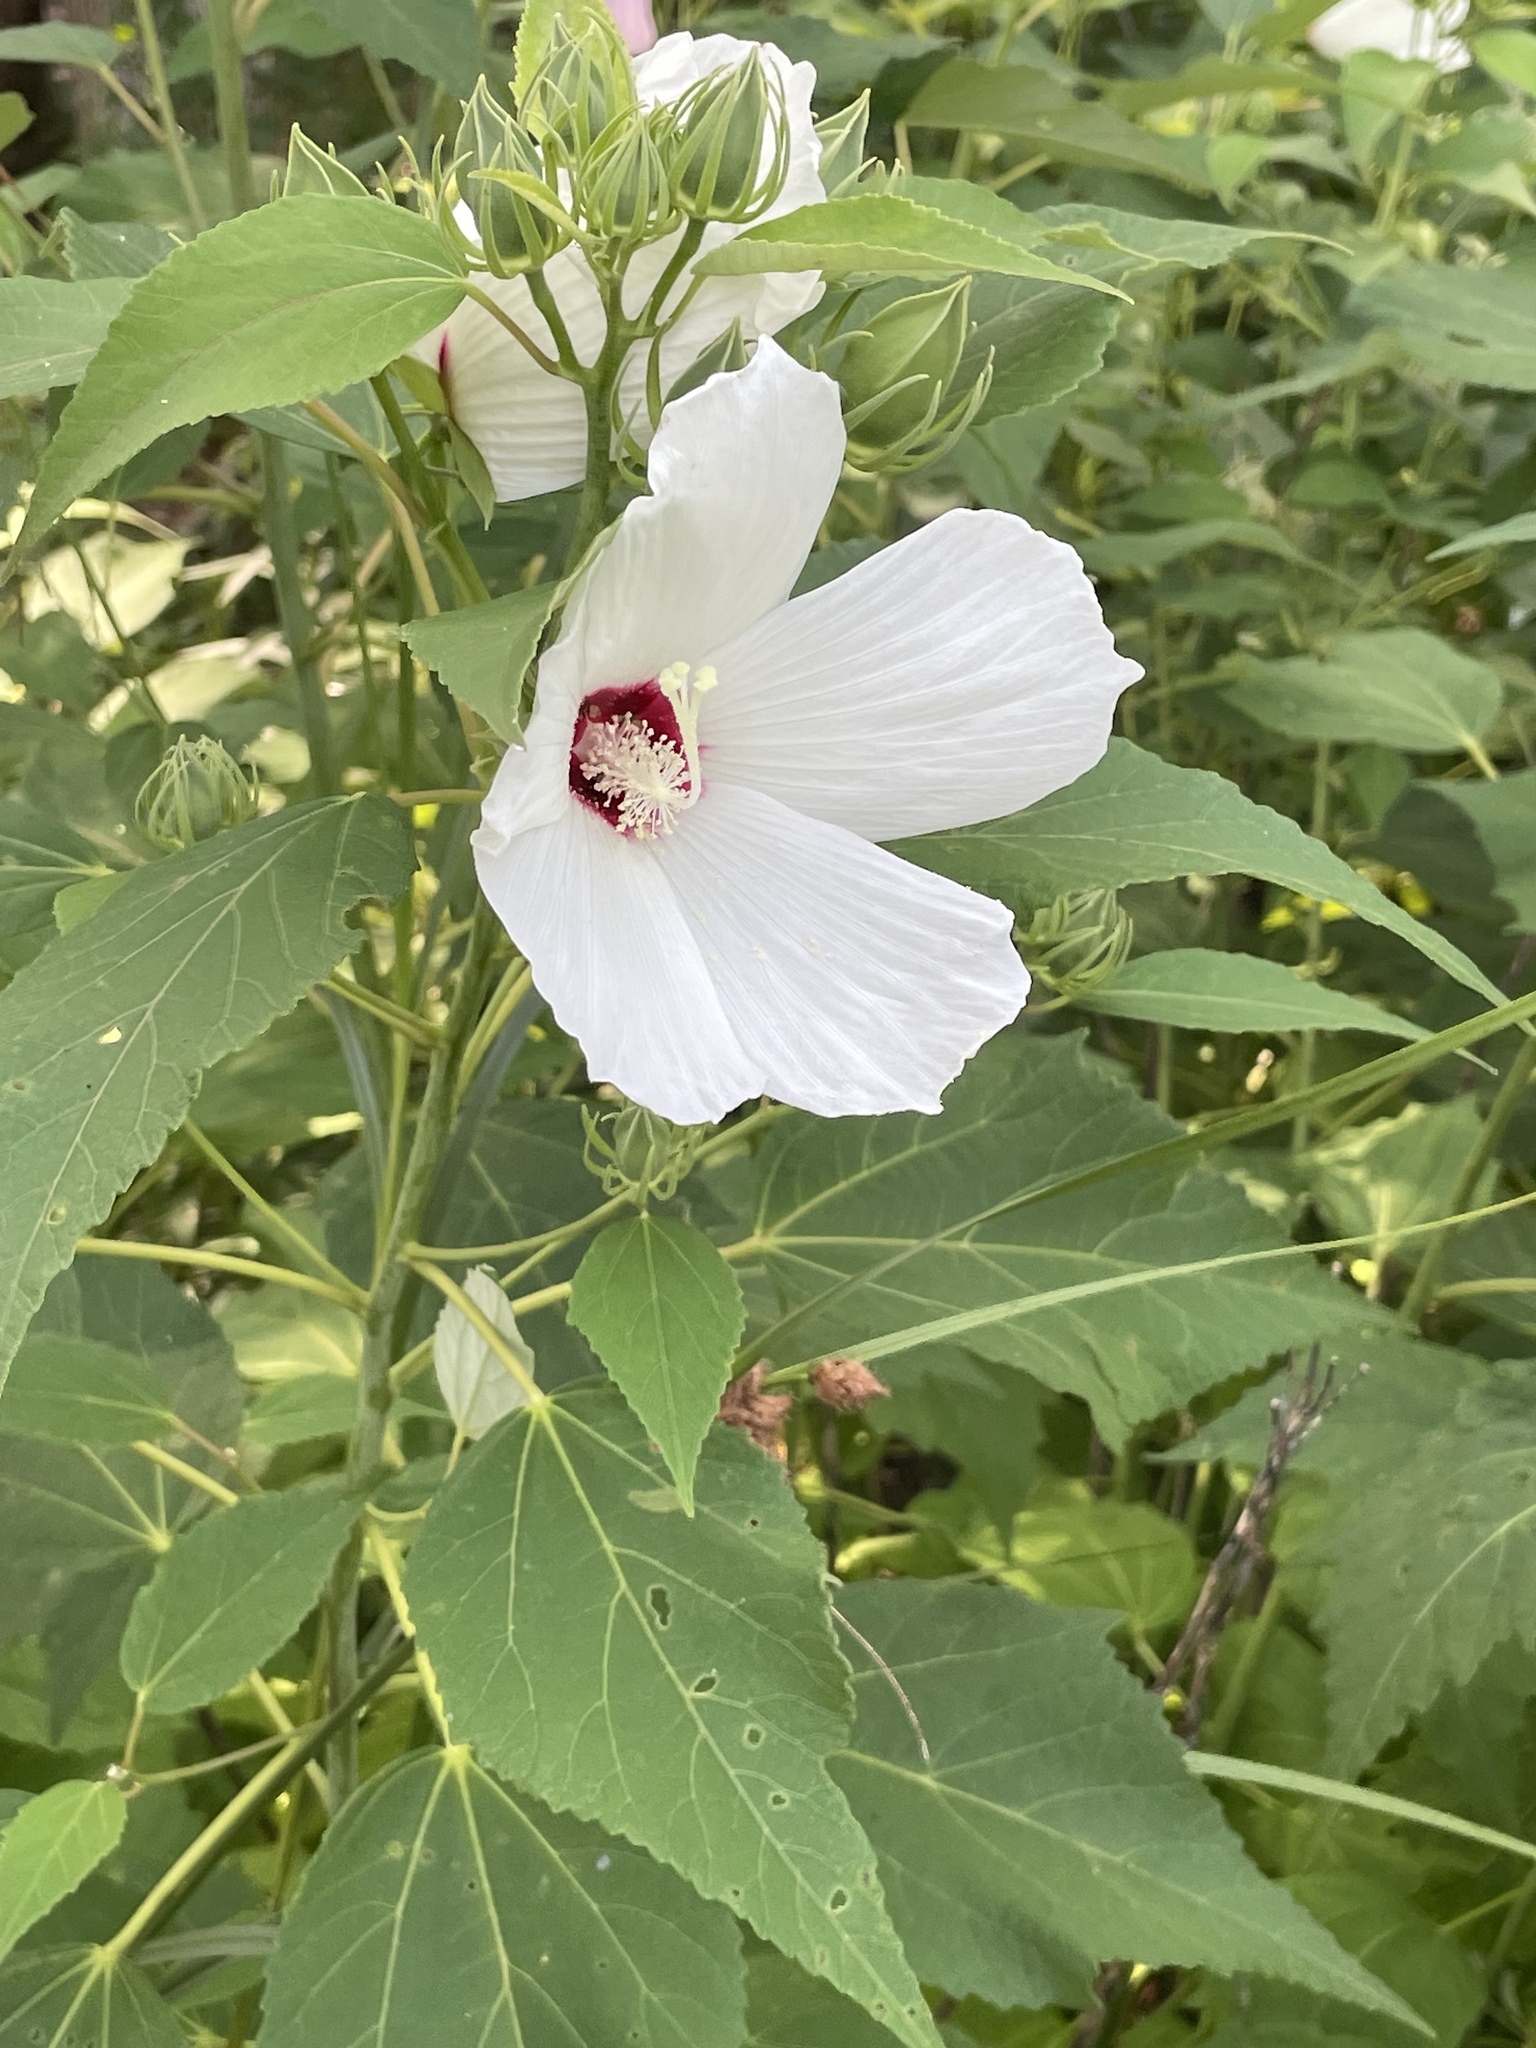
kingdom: Plantae
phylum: Tracheophyta
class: Magnoliopsida
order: Malvales
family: Malvaceae
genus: Hibiscus
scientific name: Hibiscus moscheutos
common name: Common rose-mallow
